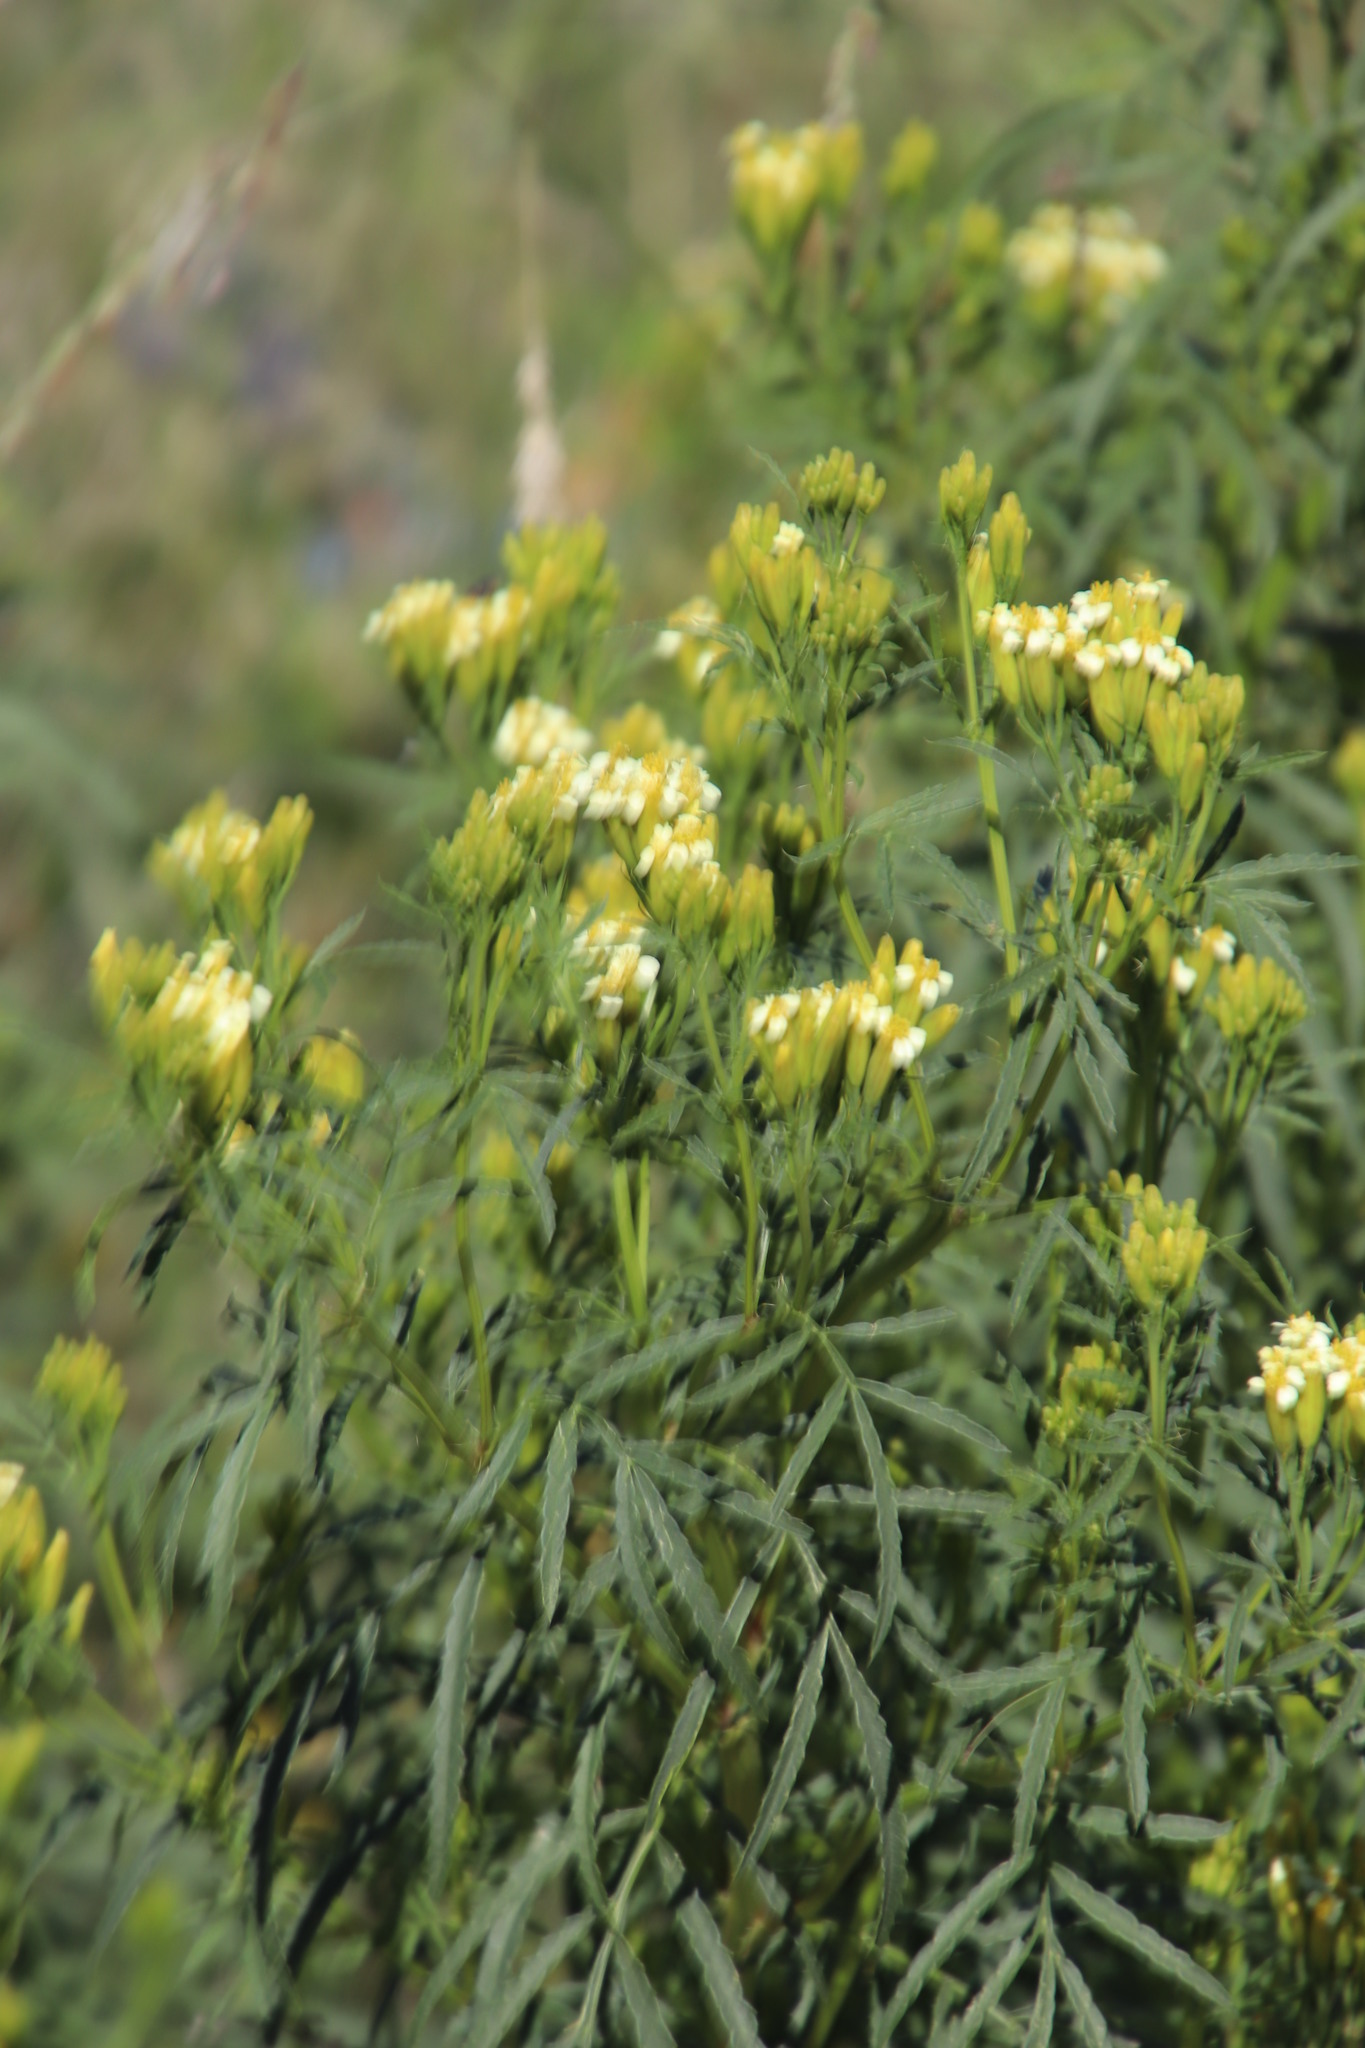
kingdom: Plantae
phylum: Tracheophyta
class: Magnoliopsida
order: Asterales
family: Asteraceae
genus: Tagetes
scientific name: Tagetes minuta
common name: Muster john henry
